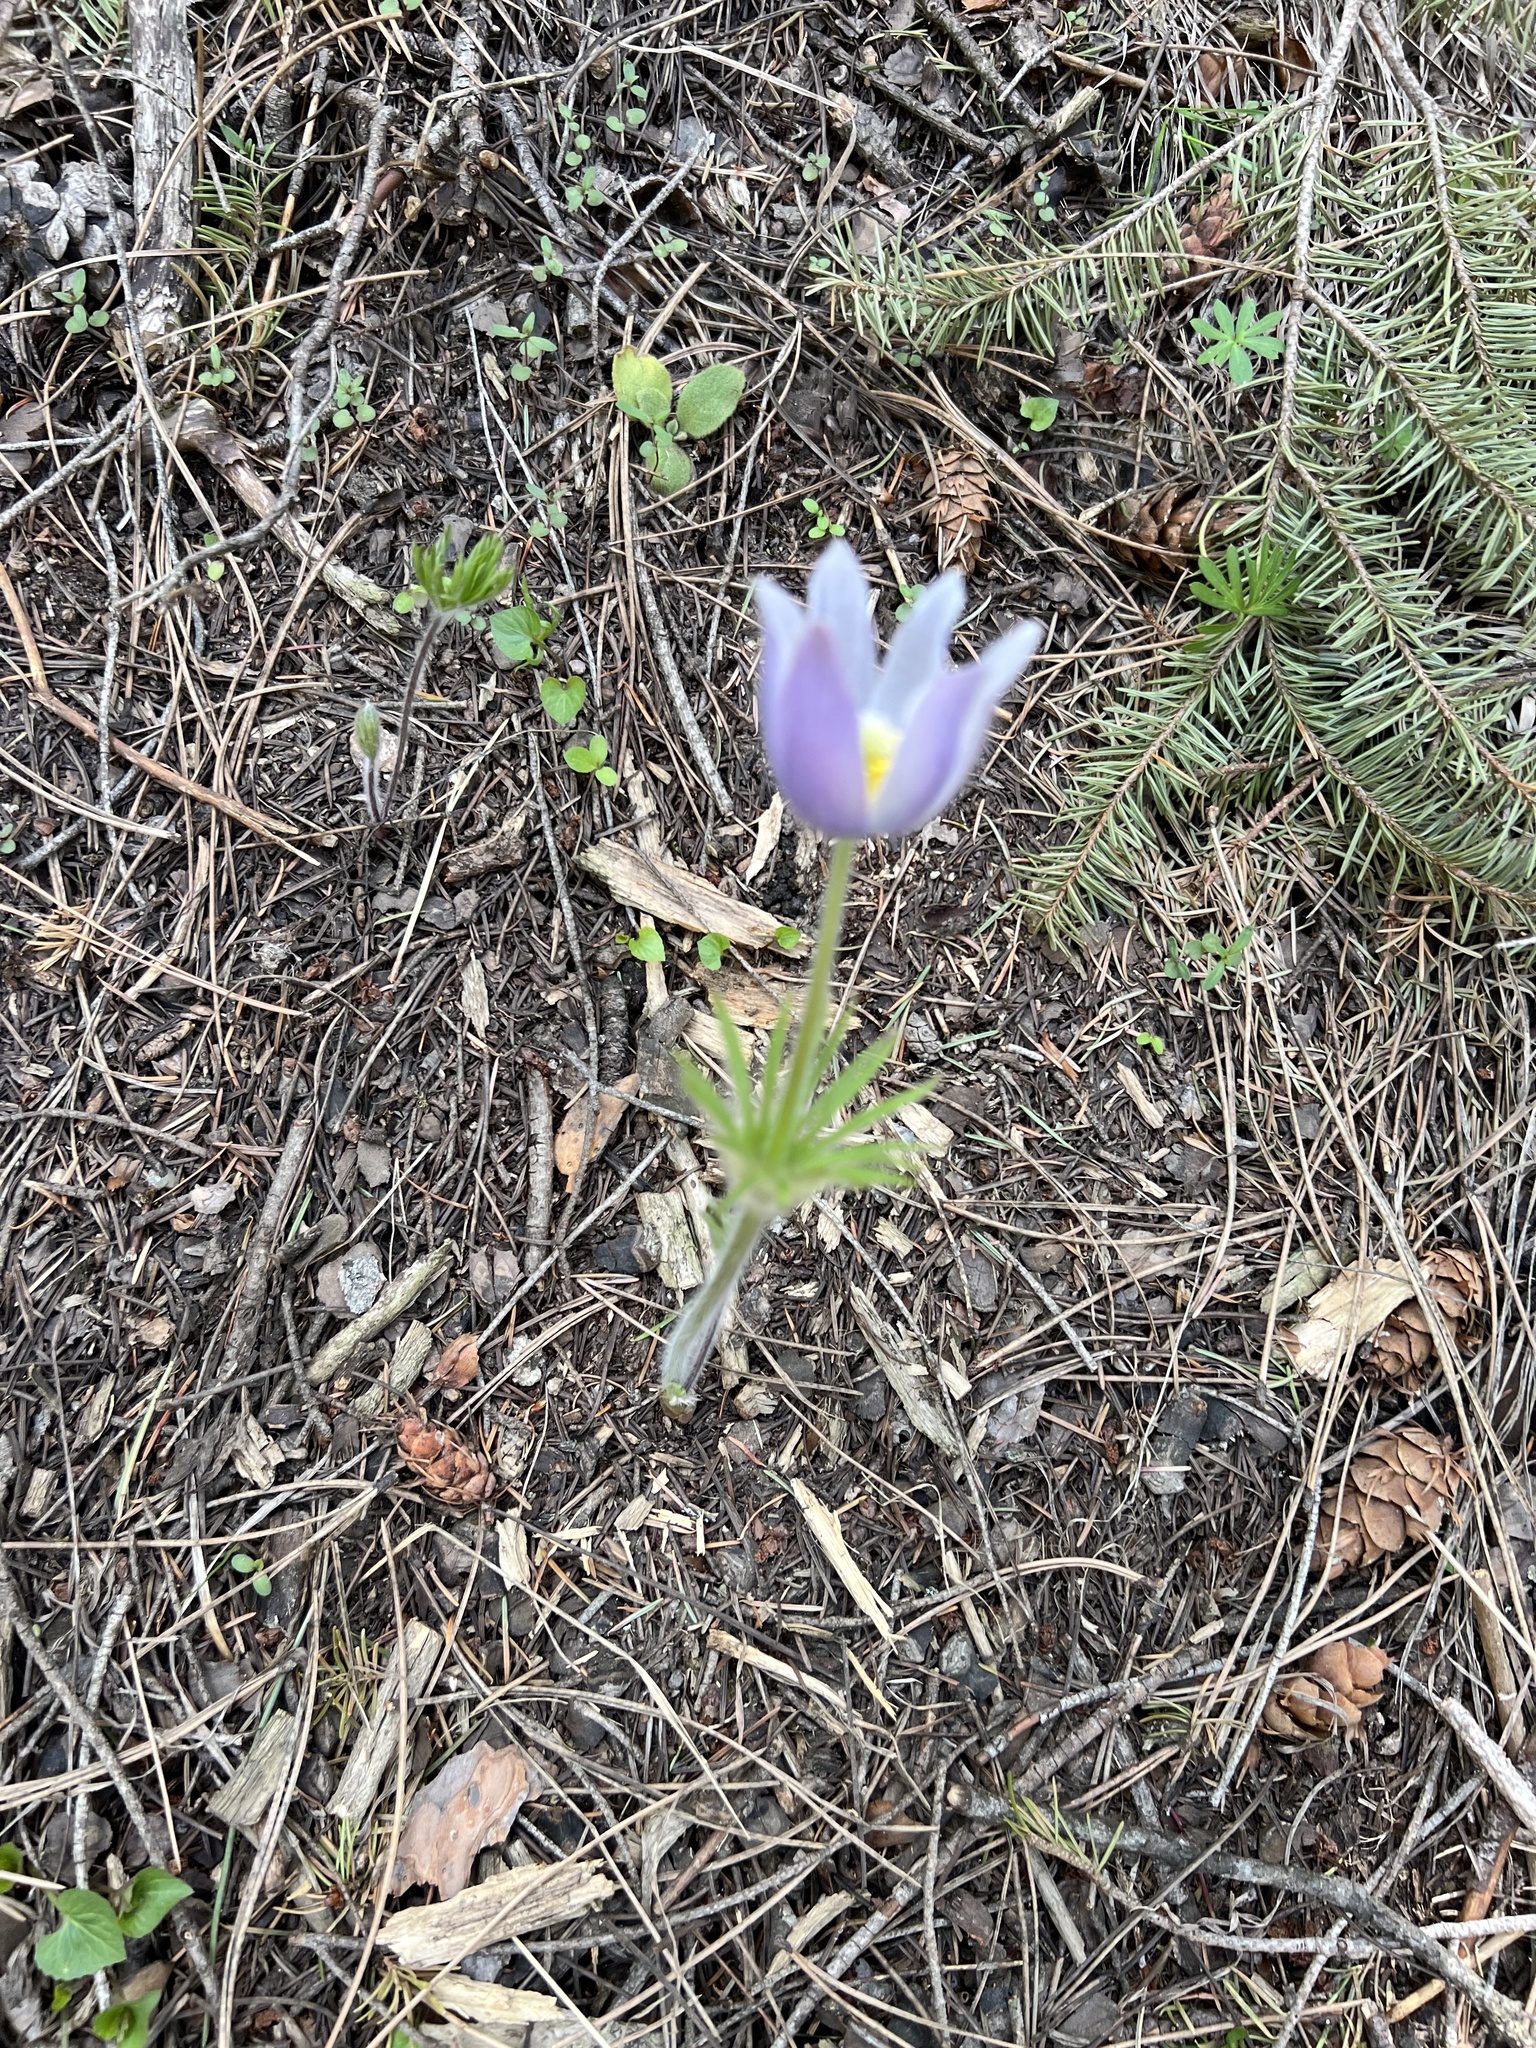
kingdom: Plantae
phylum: Tracheophyta
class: Magnoliopsida
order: Ranunculales
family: Ranunculaceae
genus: Pulsatilla
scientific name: Pulsatilla nuttalliana
